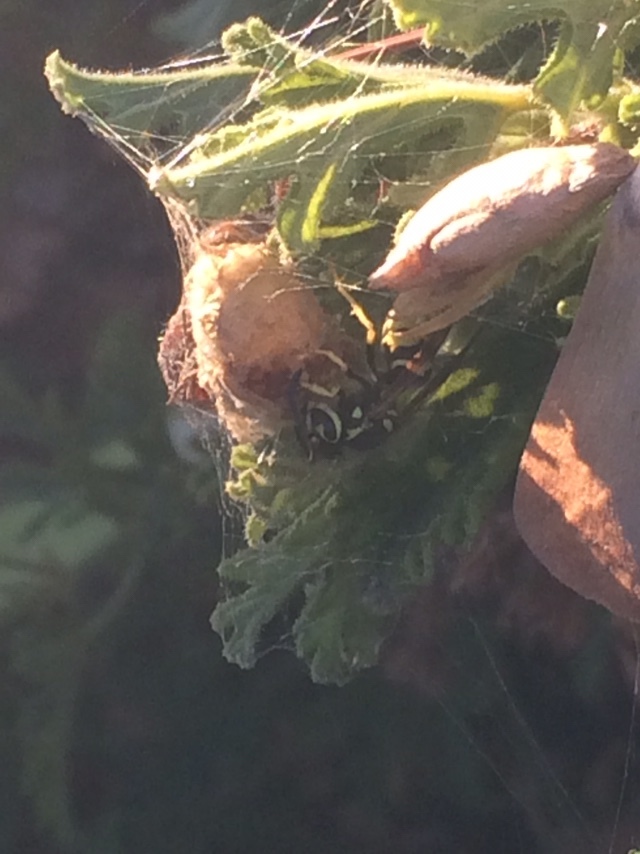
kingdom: Animalia
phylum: Arthropoda
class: Insecta
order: Hymenoptera
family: Vespidae
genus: Vespula
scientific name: Vespula pensylvanica
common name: Western yellowjacket
